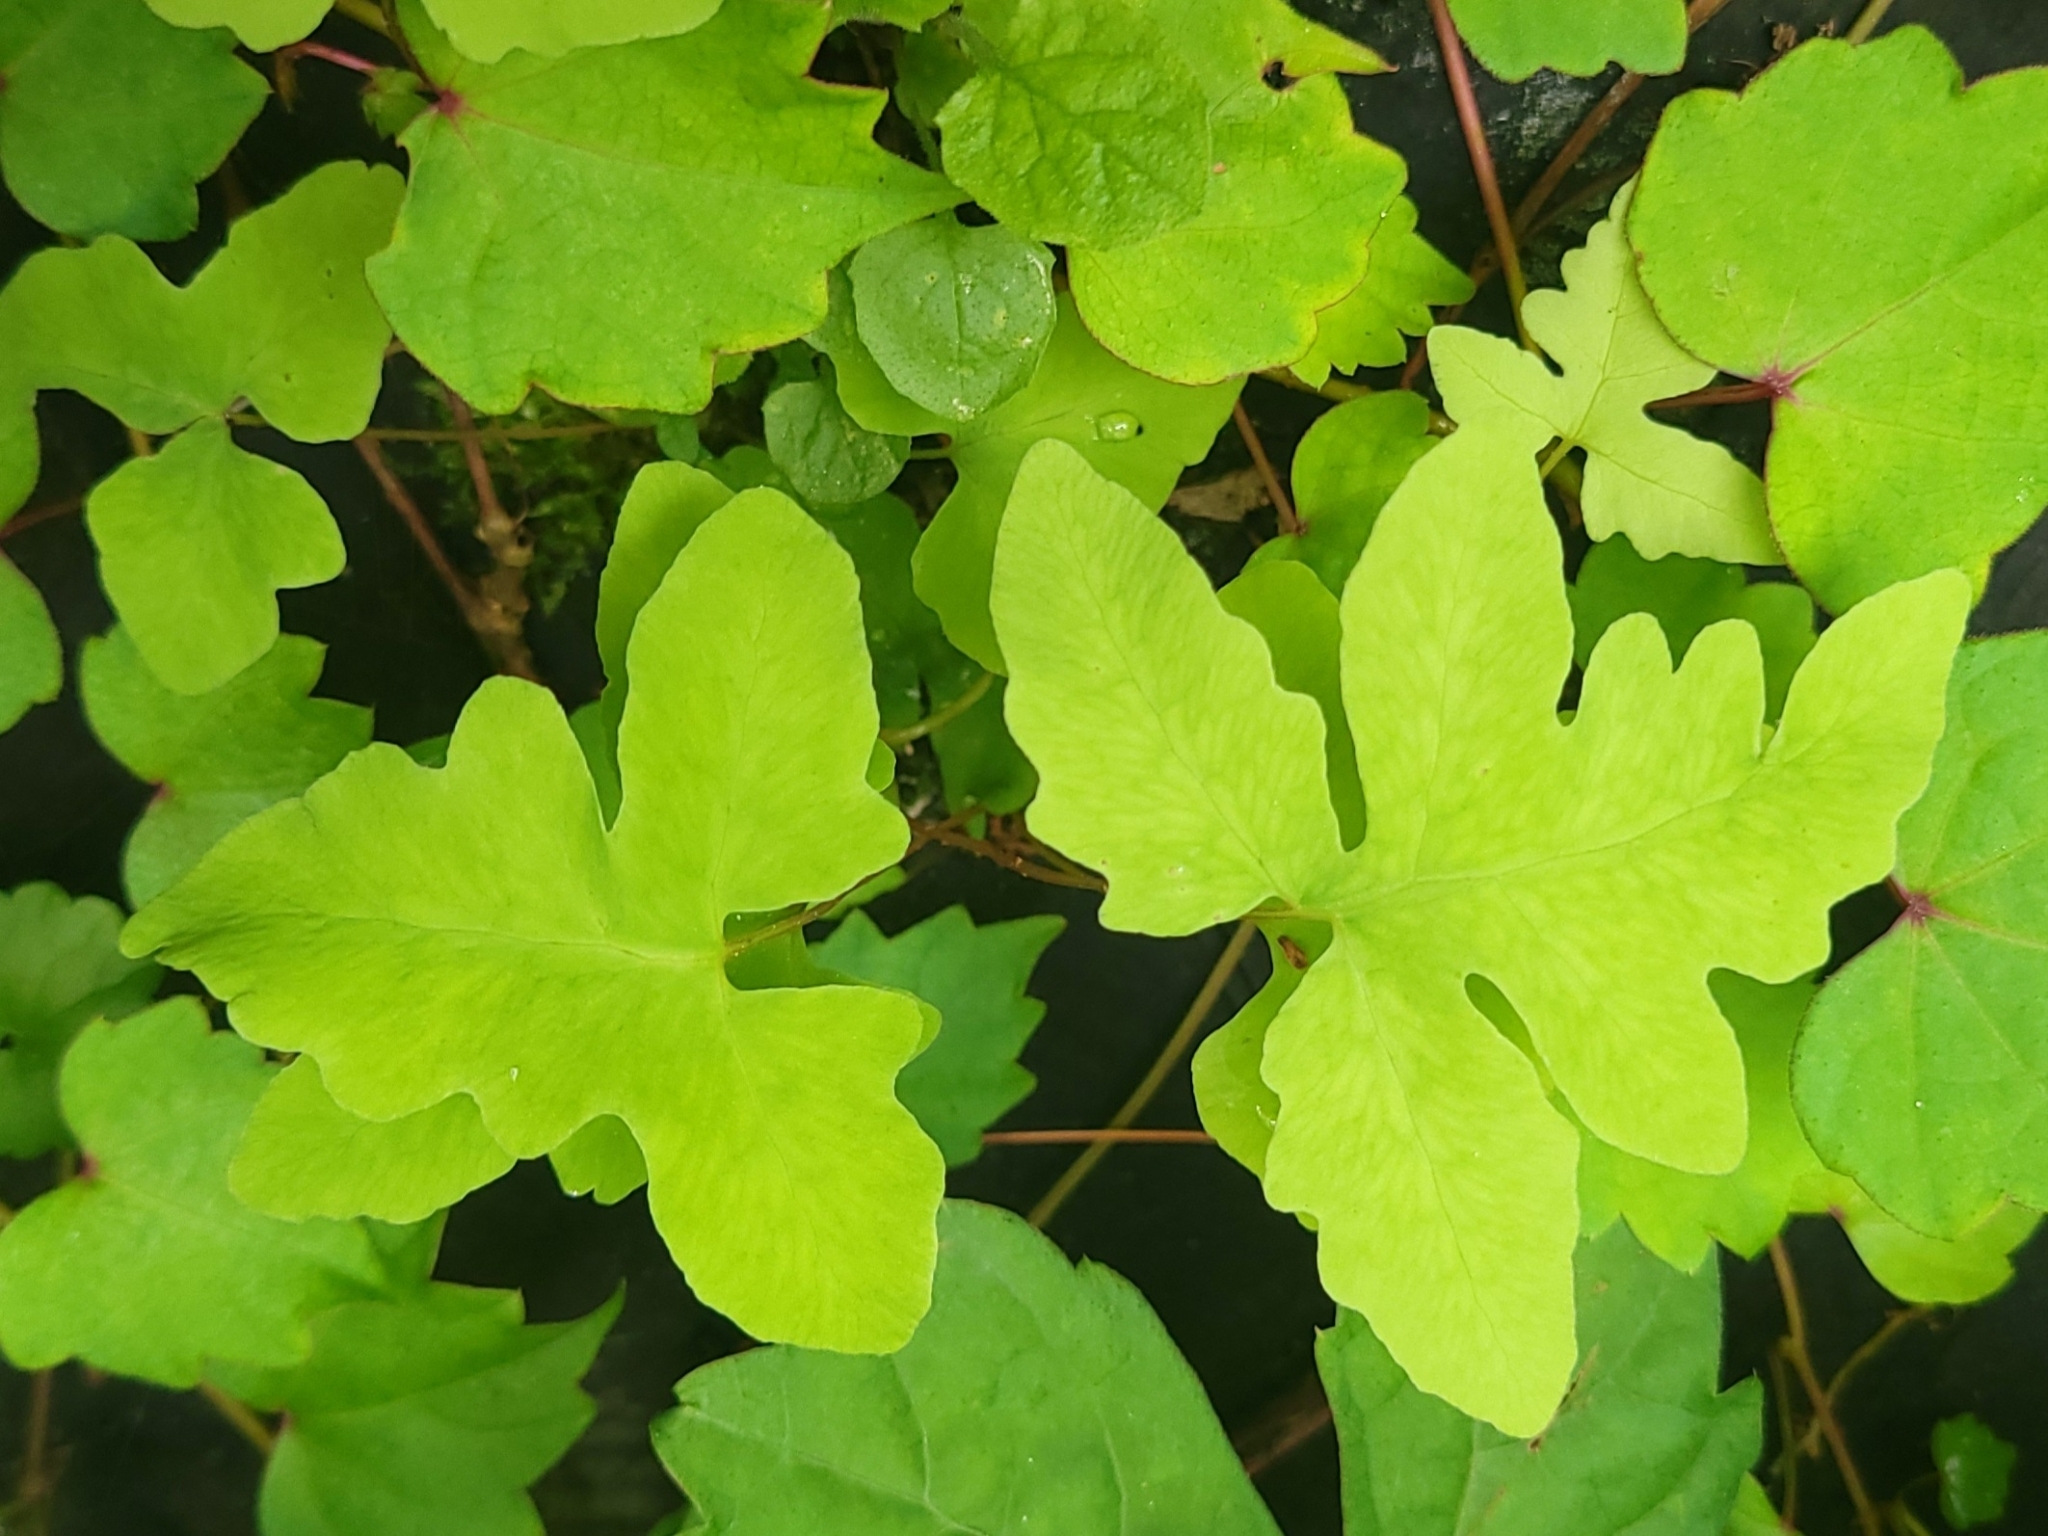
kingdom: Plantae
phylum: Tracheophyta
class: Polypodiopsida
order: Polypodiales
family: Onocleaceae
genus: Onoclea
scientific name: Onoclea sensibilis
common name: Sensitive fern
